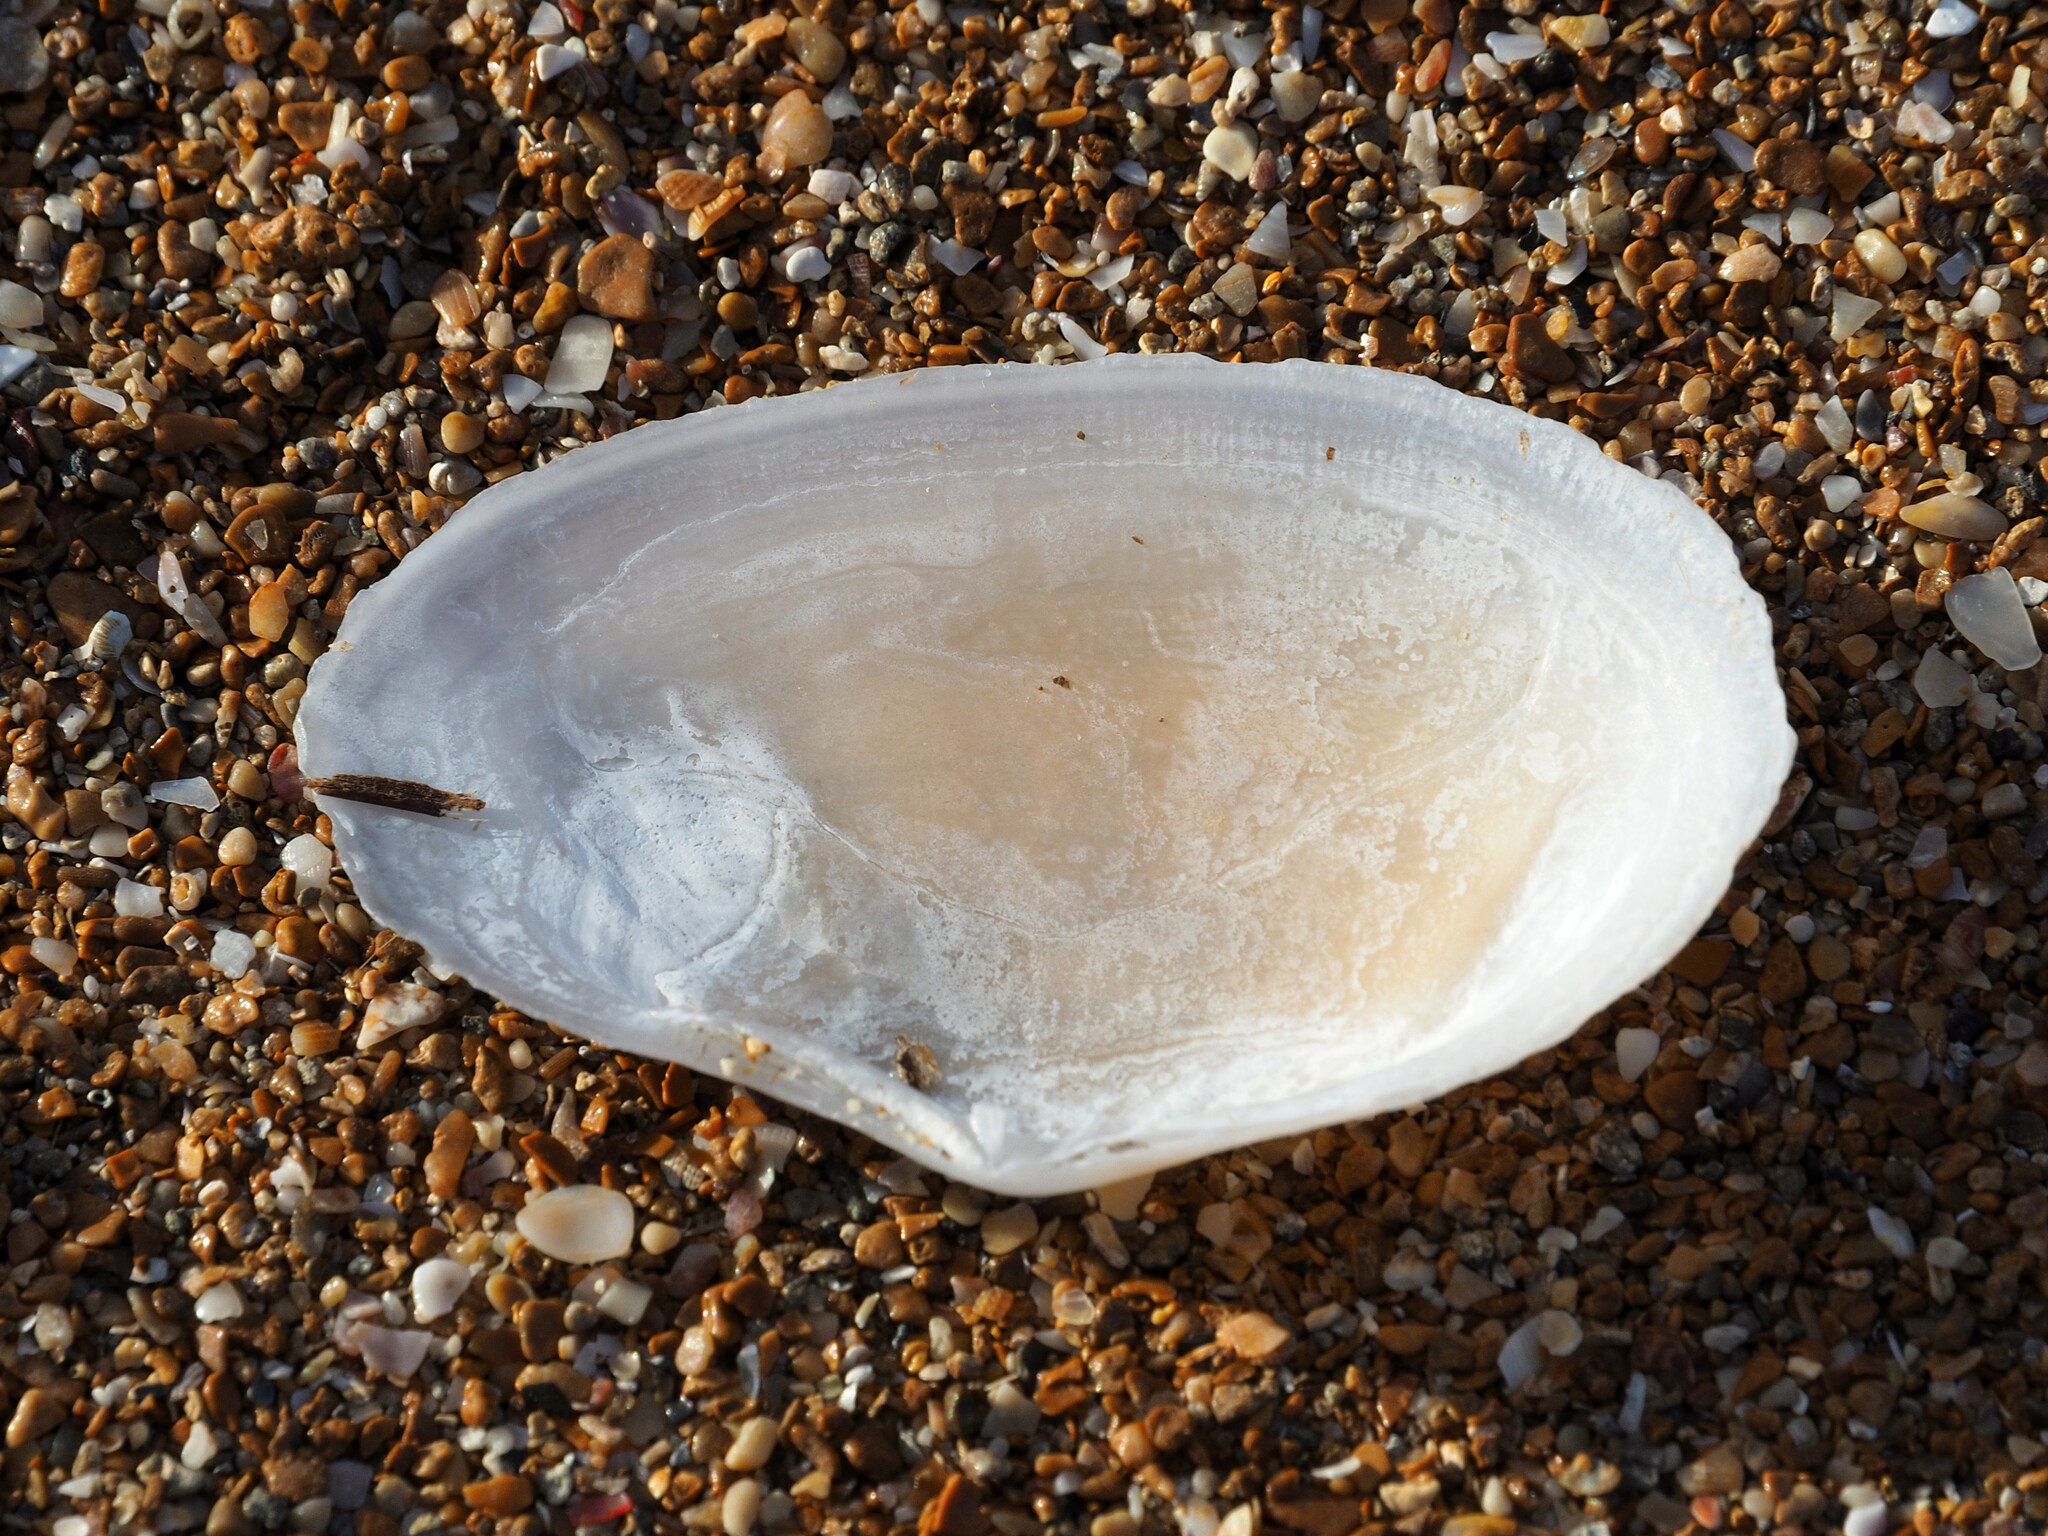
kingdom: Animalia
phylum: Mollusca
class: Bivalvia
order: Cardiida
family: Tellinidae
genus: Peronaea
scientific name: Peronaea planata
